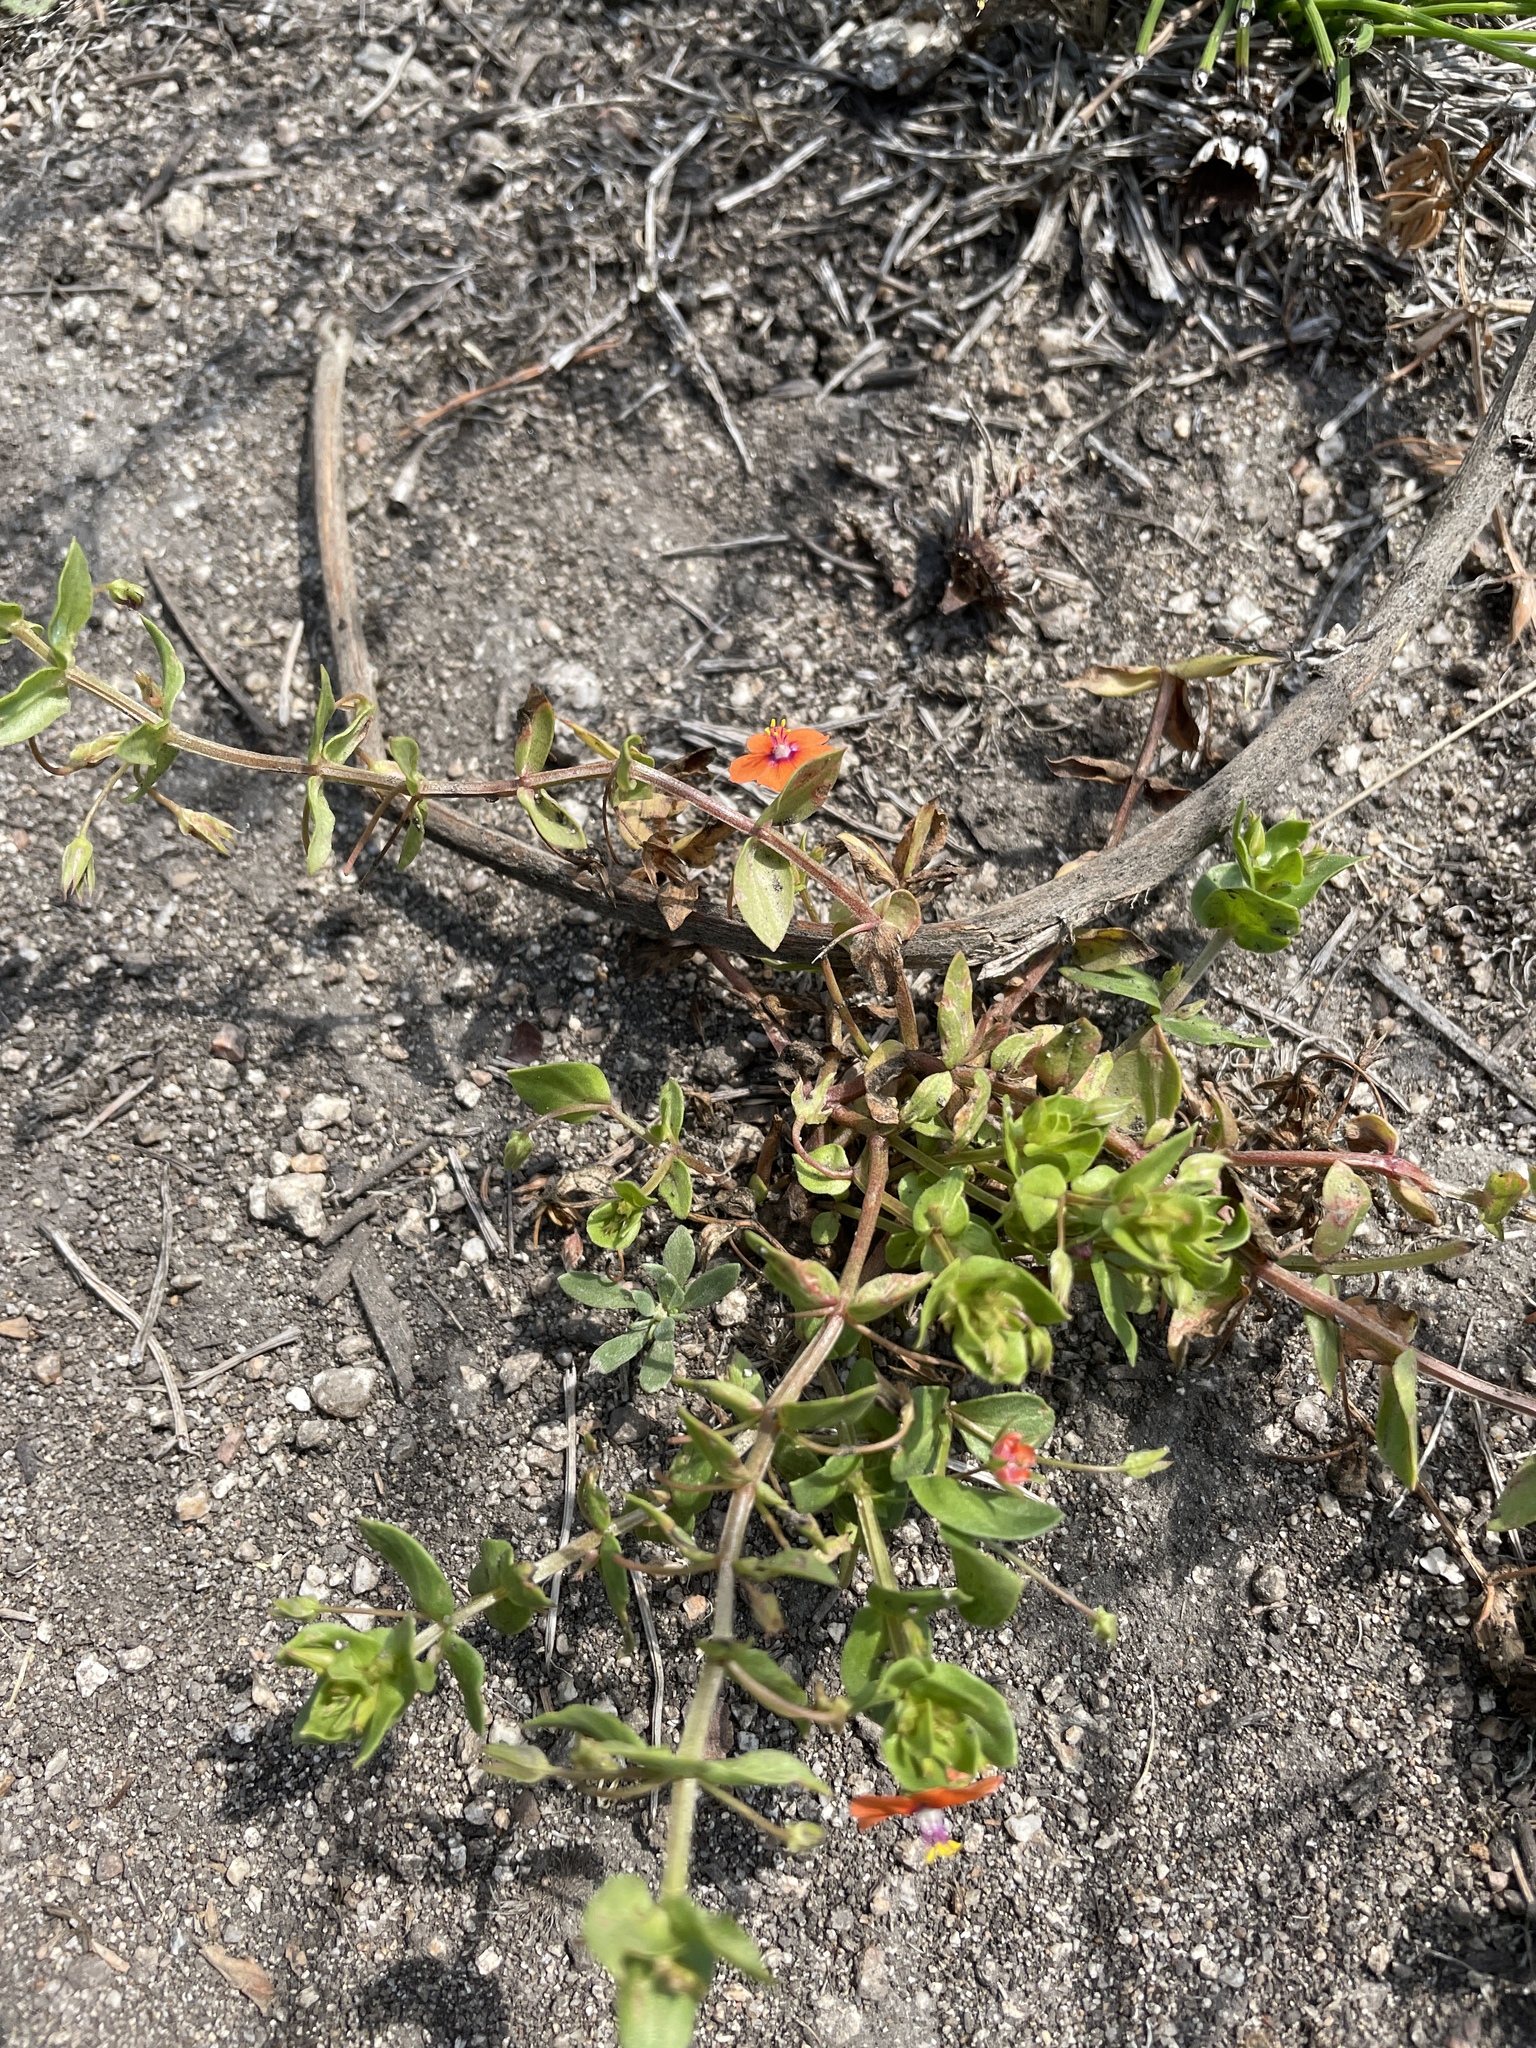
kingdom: Plantae
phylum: Tracheophyta
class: Magnoliopsida
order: Ericales
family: Primulaceae
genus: Lysimachia
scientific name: Lysimachia arvensis
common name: Scarlet pimpernel
